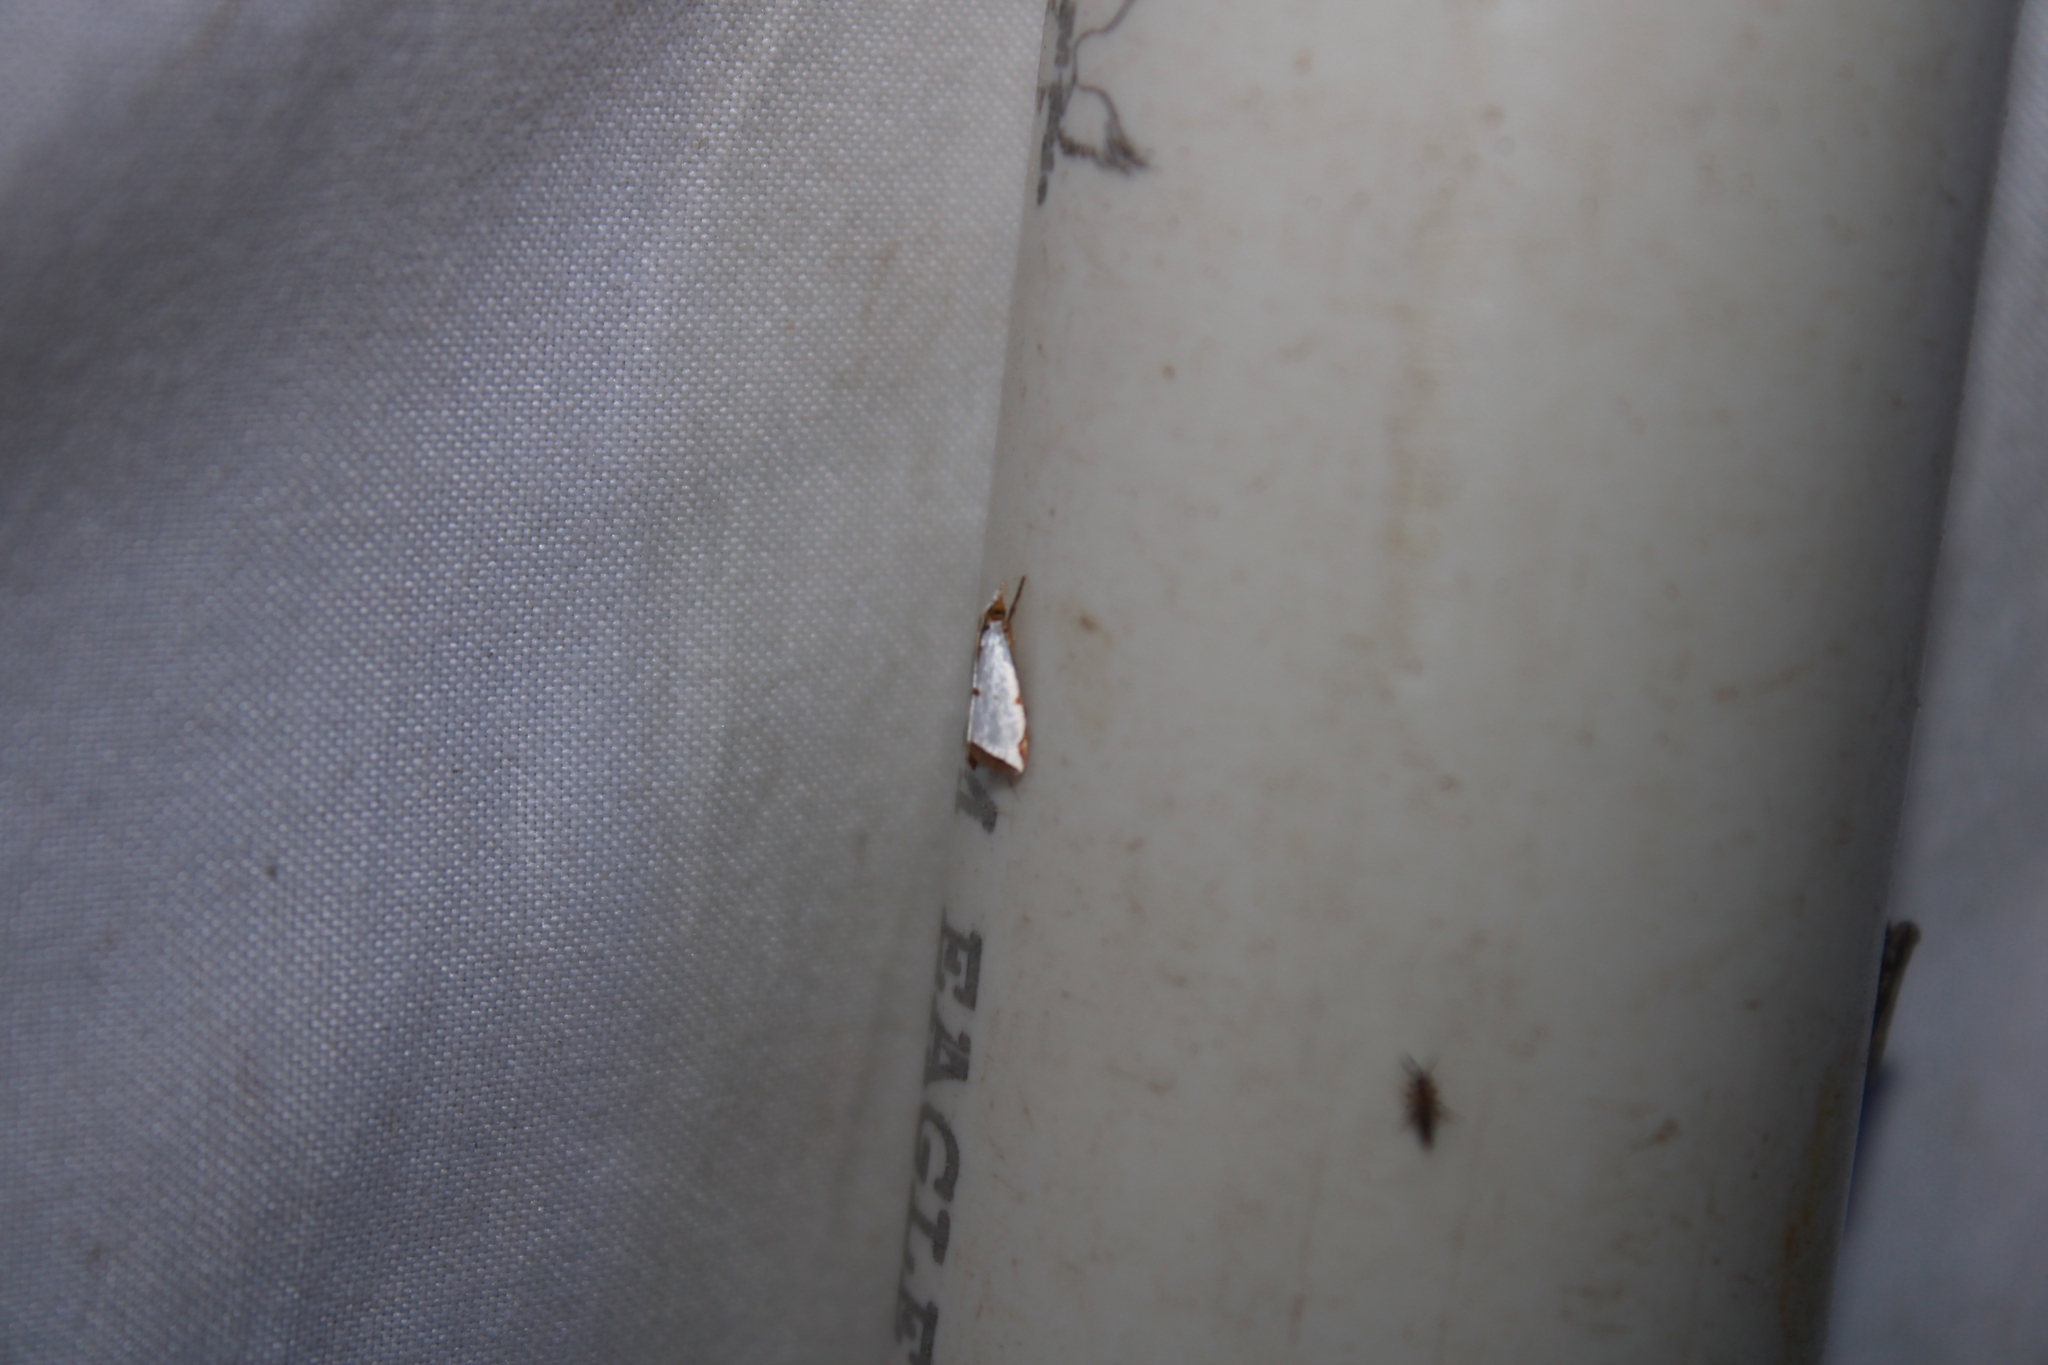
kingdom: Animalia
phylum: Arthropoda
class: Insecta
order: Lepidoptera
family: Crambidae
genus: Argyria
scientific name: Argyria lacteella
